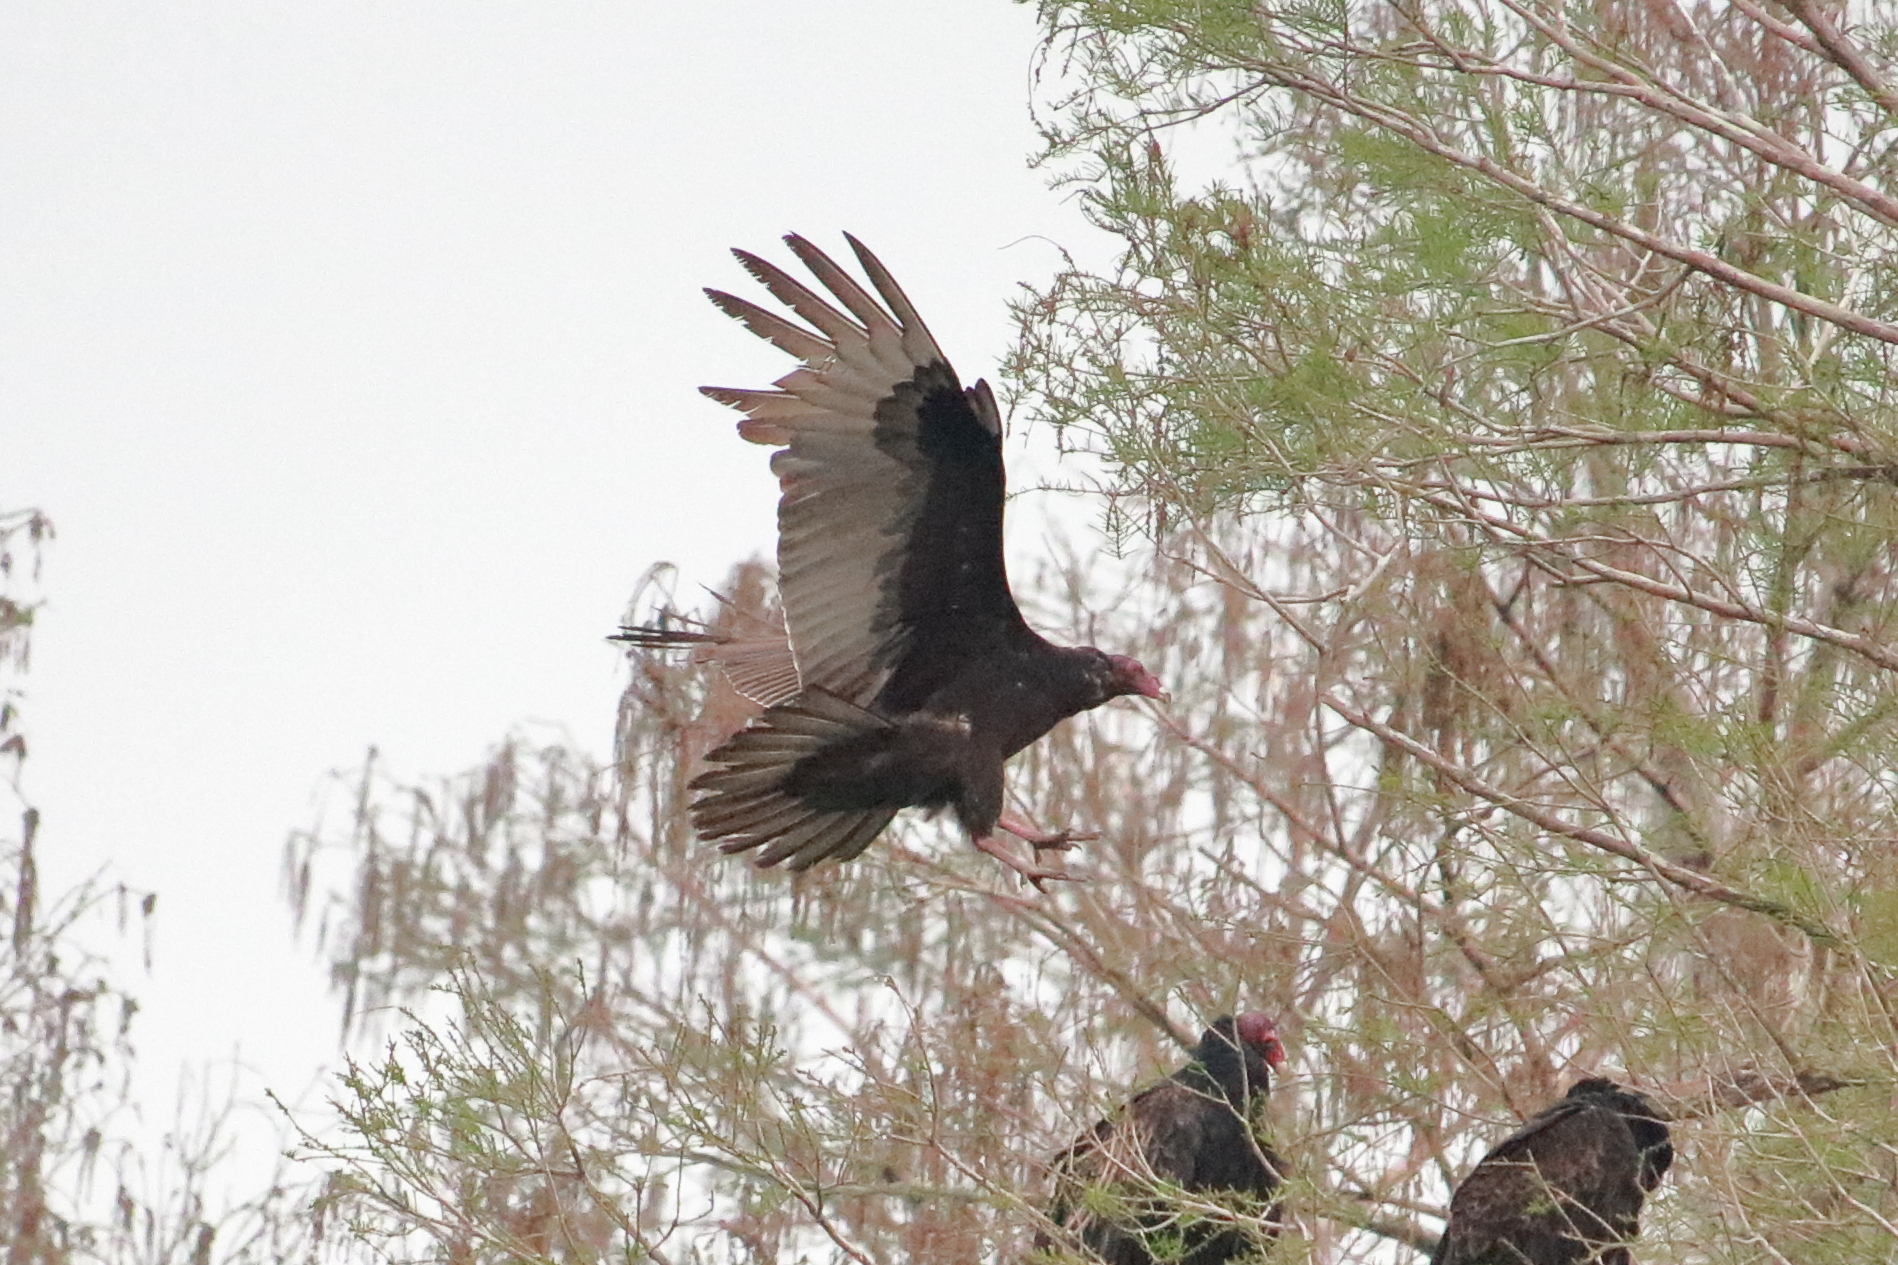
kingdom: Animalia
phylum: Chordata
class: Aves
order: Accipitriformes
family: Cathartidae
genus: Cathartes
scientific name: Cathartes aura
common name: Turkey vulture
